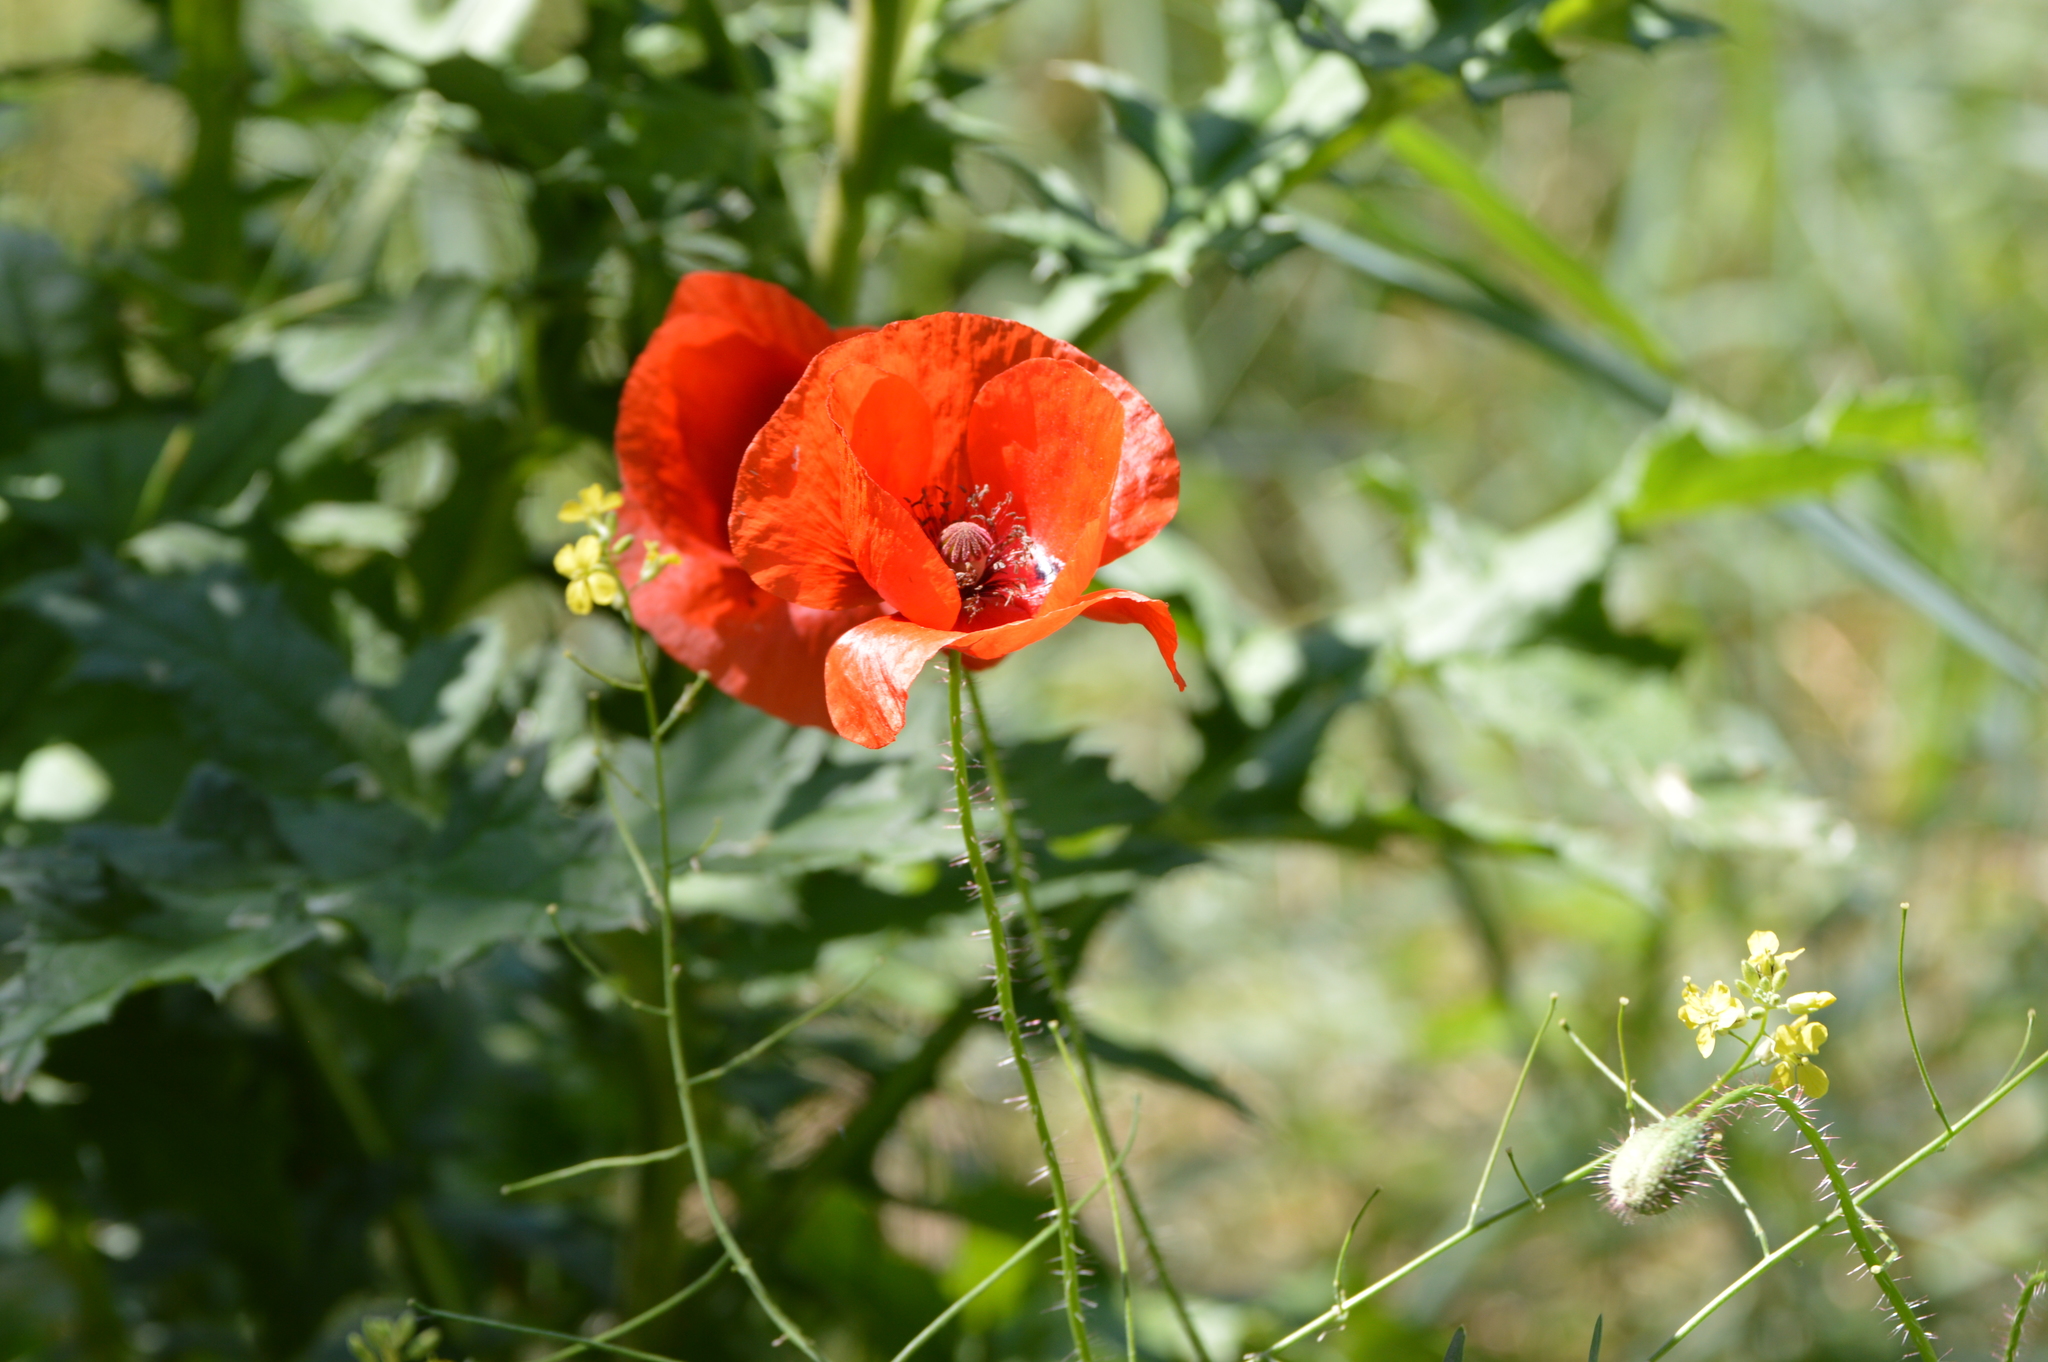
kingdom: Plantae
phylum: Tracheophyta
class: Magnoliopsida
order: Ranunculales
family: Papaveraceae
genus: Papaver
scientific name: Papaver rhoeas
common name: Corn poppy
